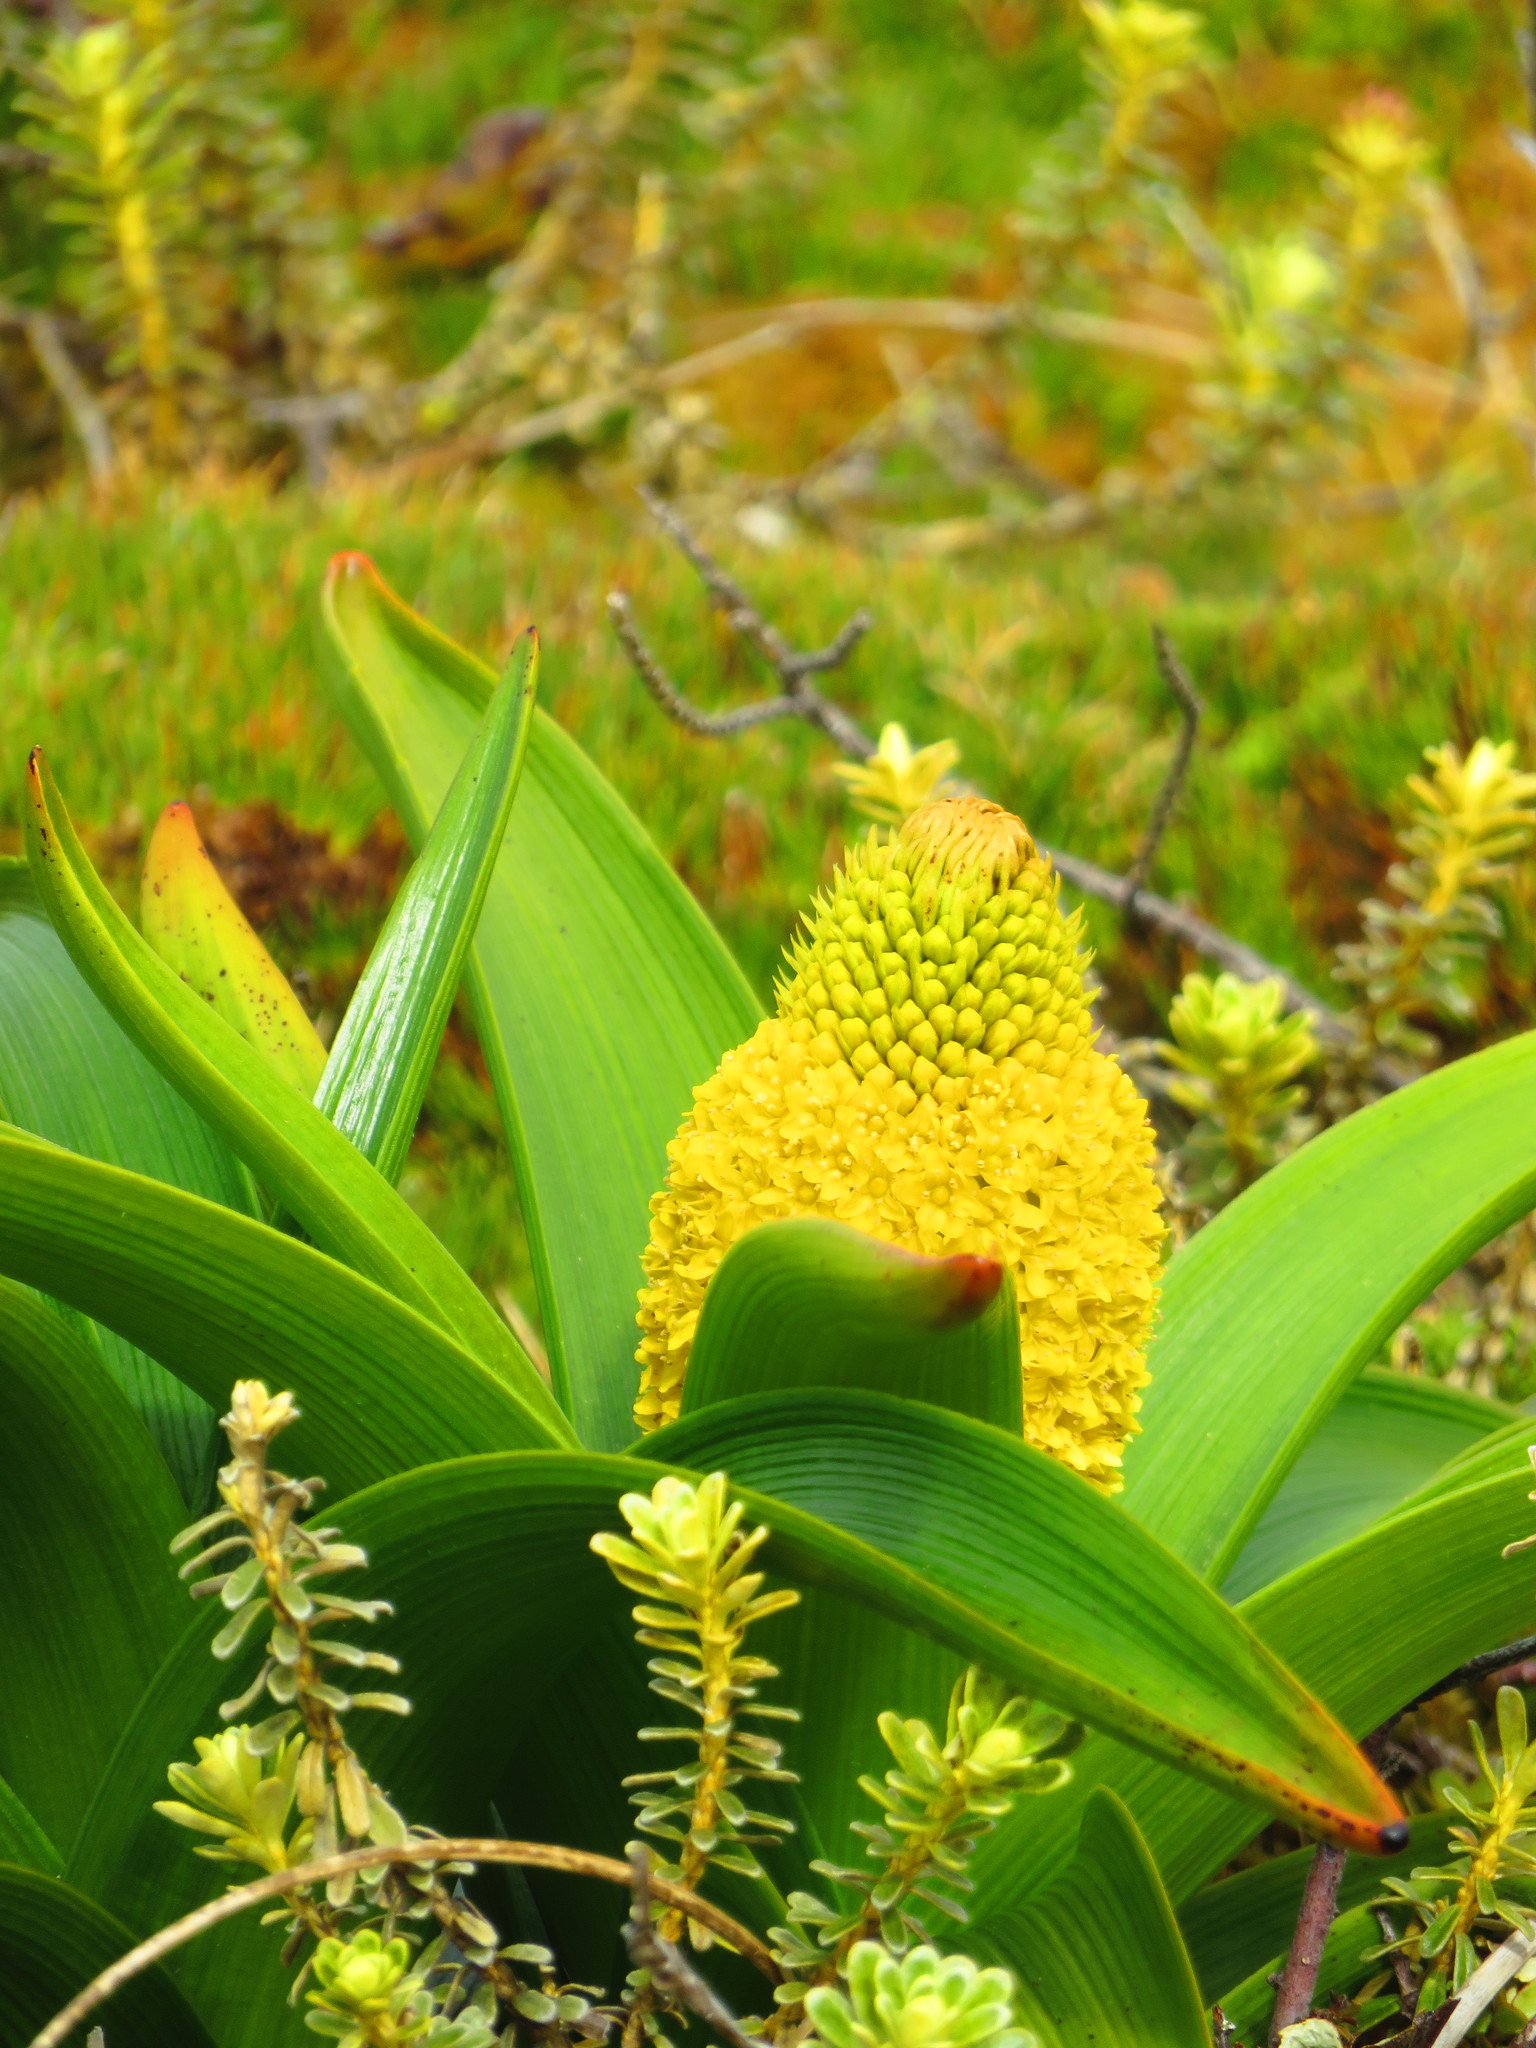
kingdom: Plantae
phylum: Tracheophyta
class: Liliopsida
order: Asparagales
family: Asphodelaceae
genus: Bulbinella
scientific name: Bulbinella rossii
